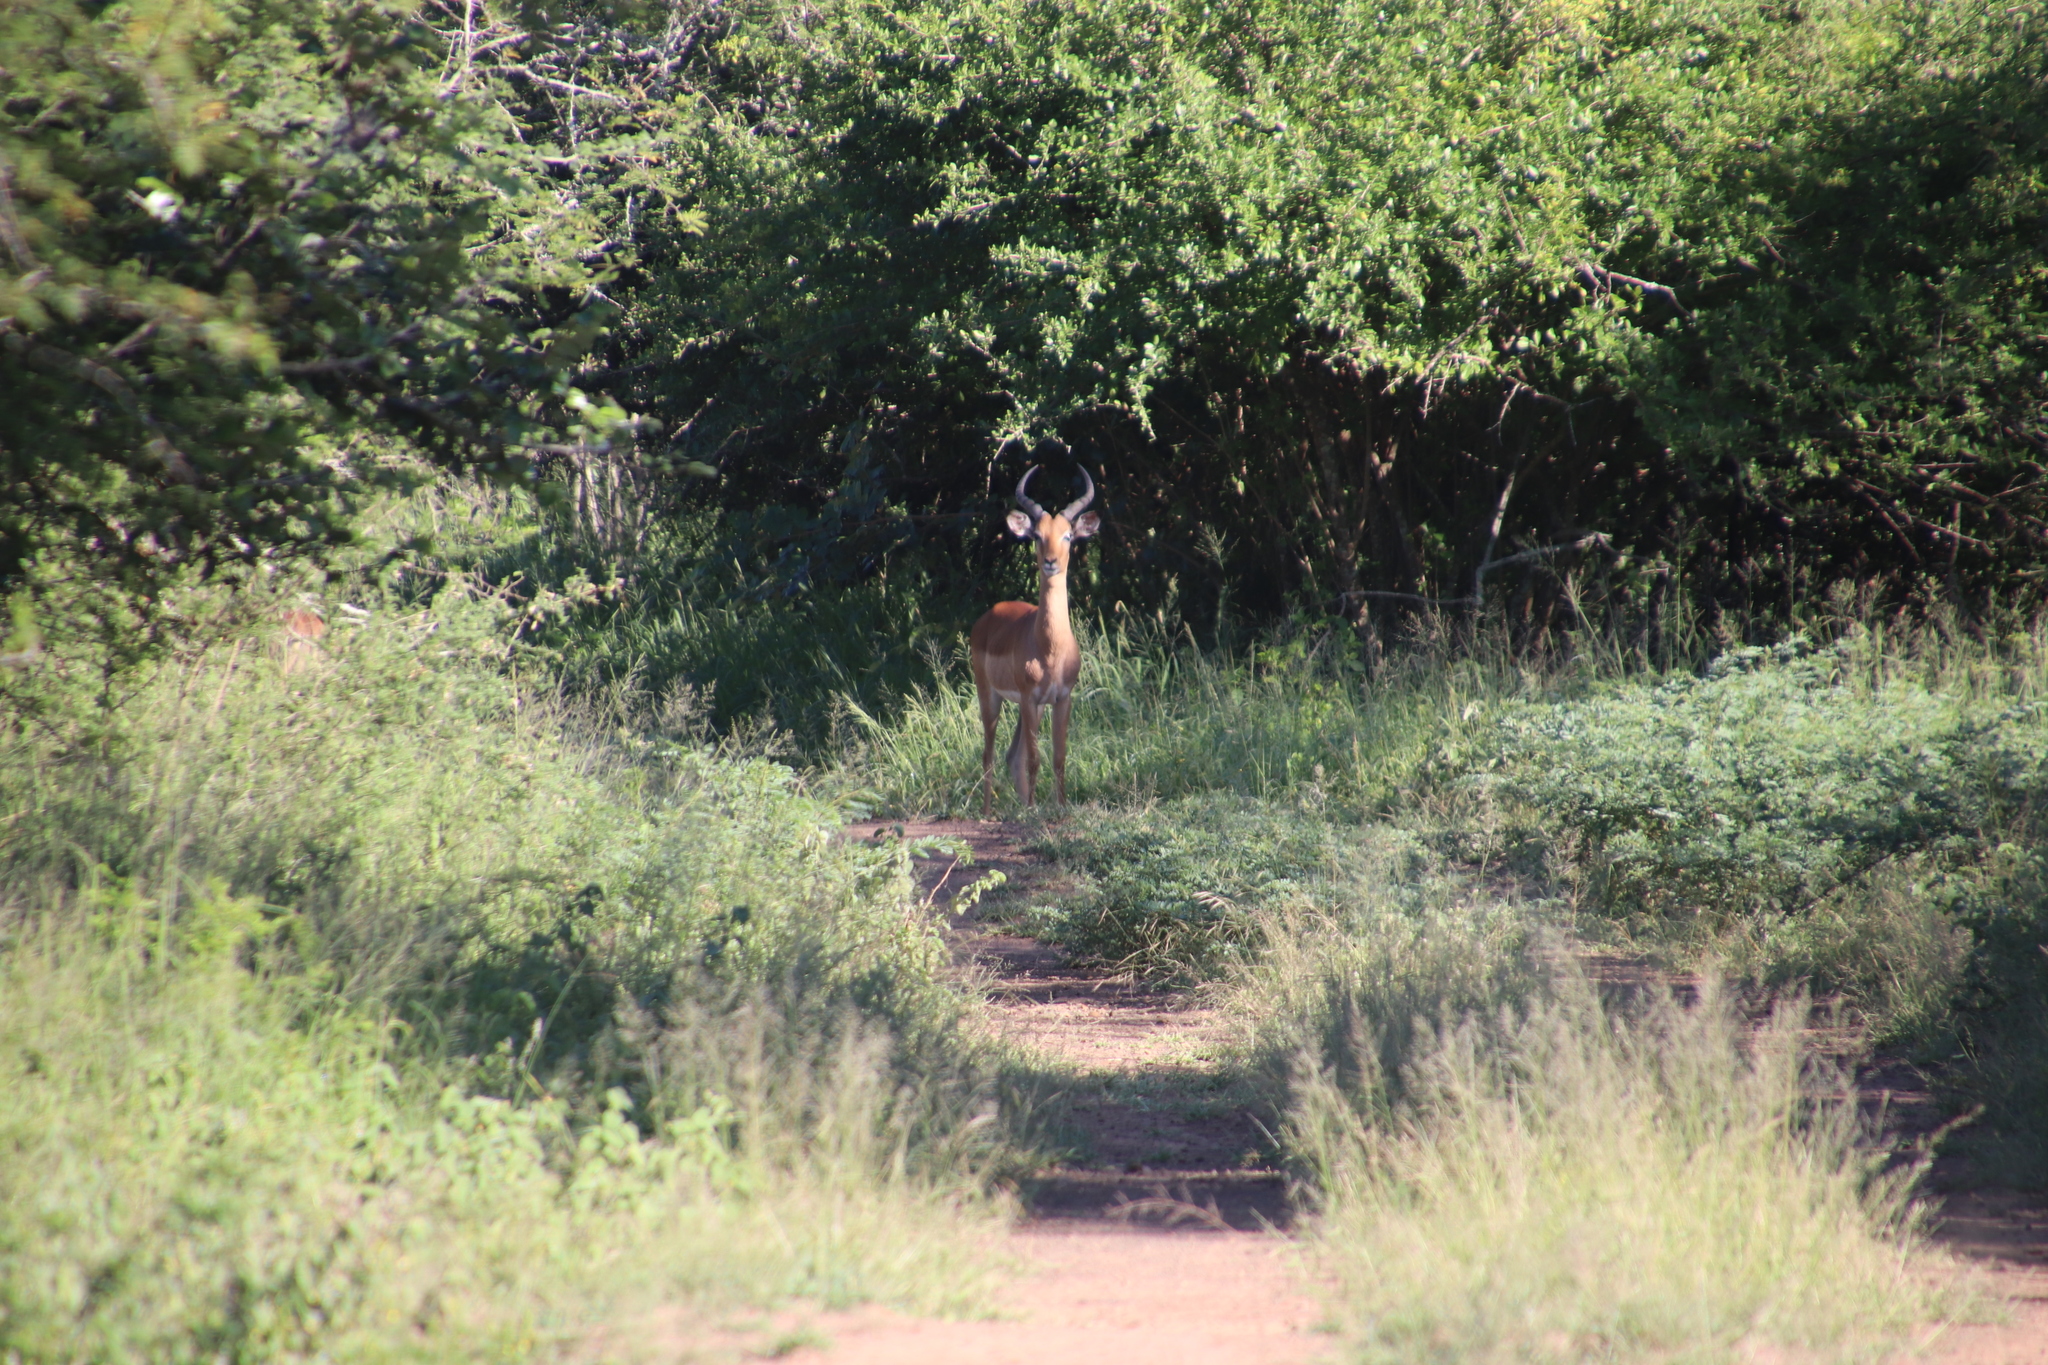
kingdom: Animalia
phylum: Chordata
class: Mammalia
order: Artiodactyla
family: Bovidae
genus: Aepyceros
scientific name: Aepyceros melampus
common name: Impala
